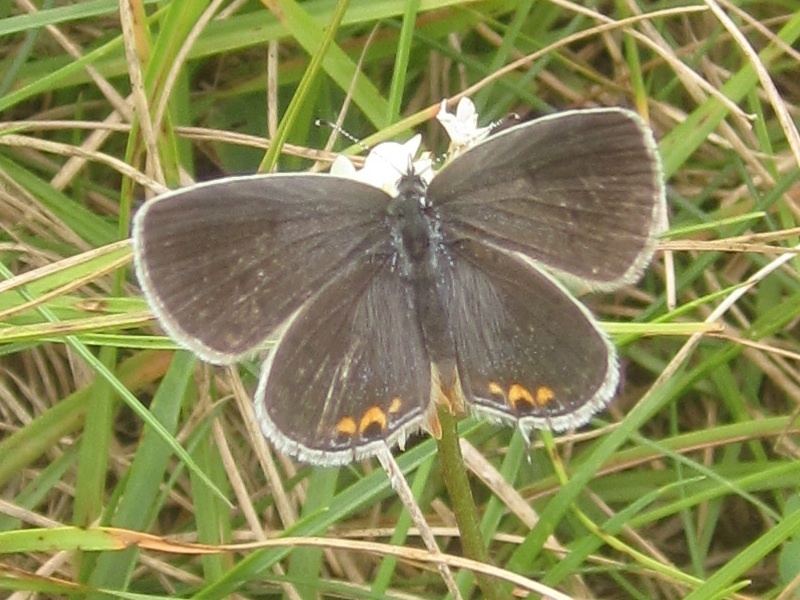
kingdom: Animalia
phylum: Arthropoda
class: Insecta
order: Lepidoptera
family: Lycaenidae
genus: Elkalyce
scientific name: Elkalyce comyntas
